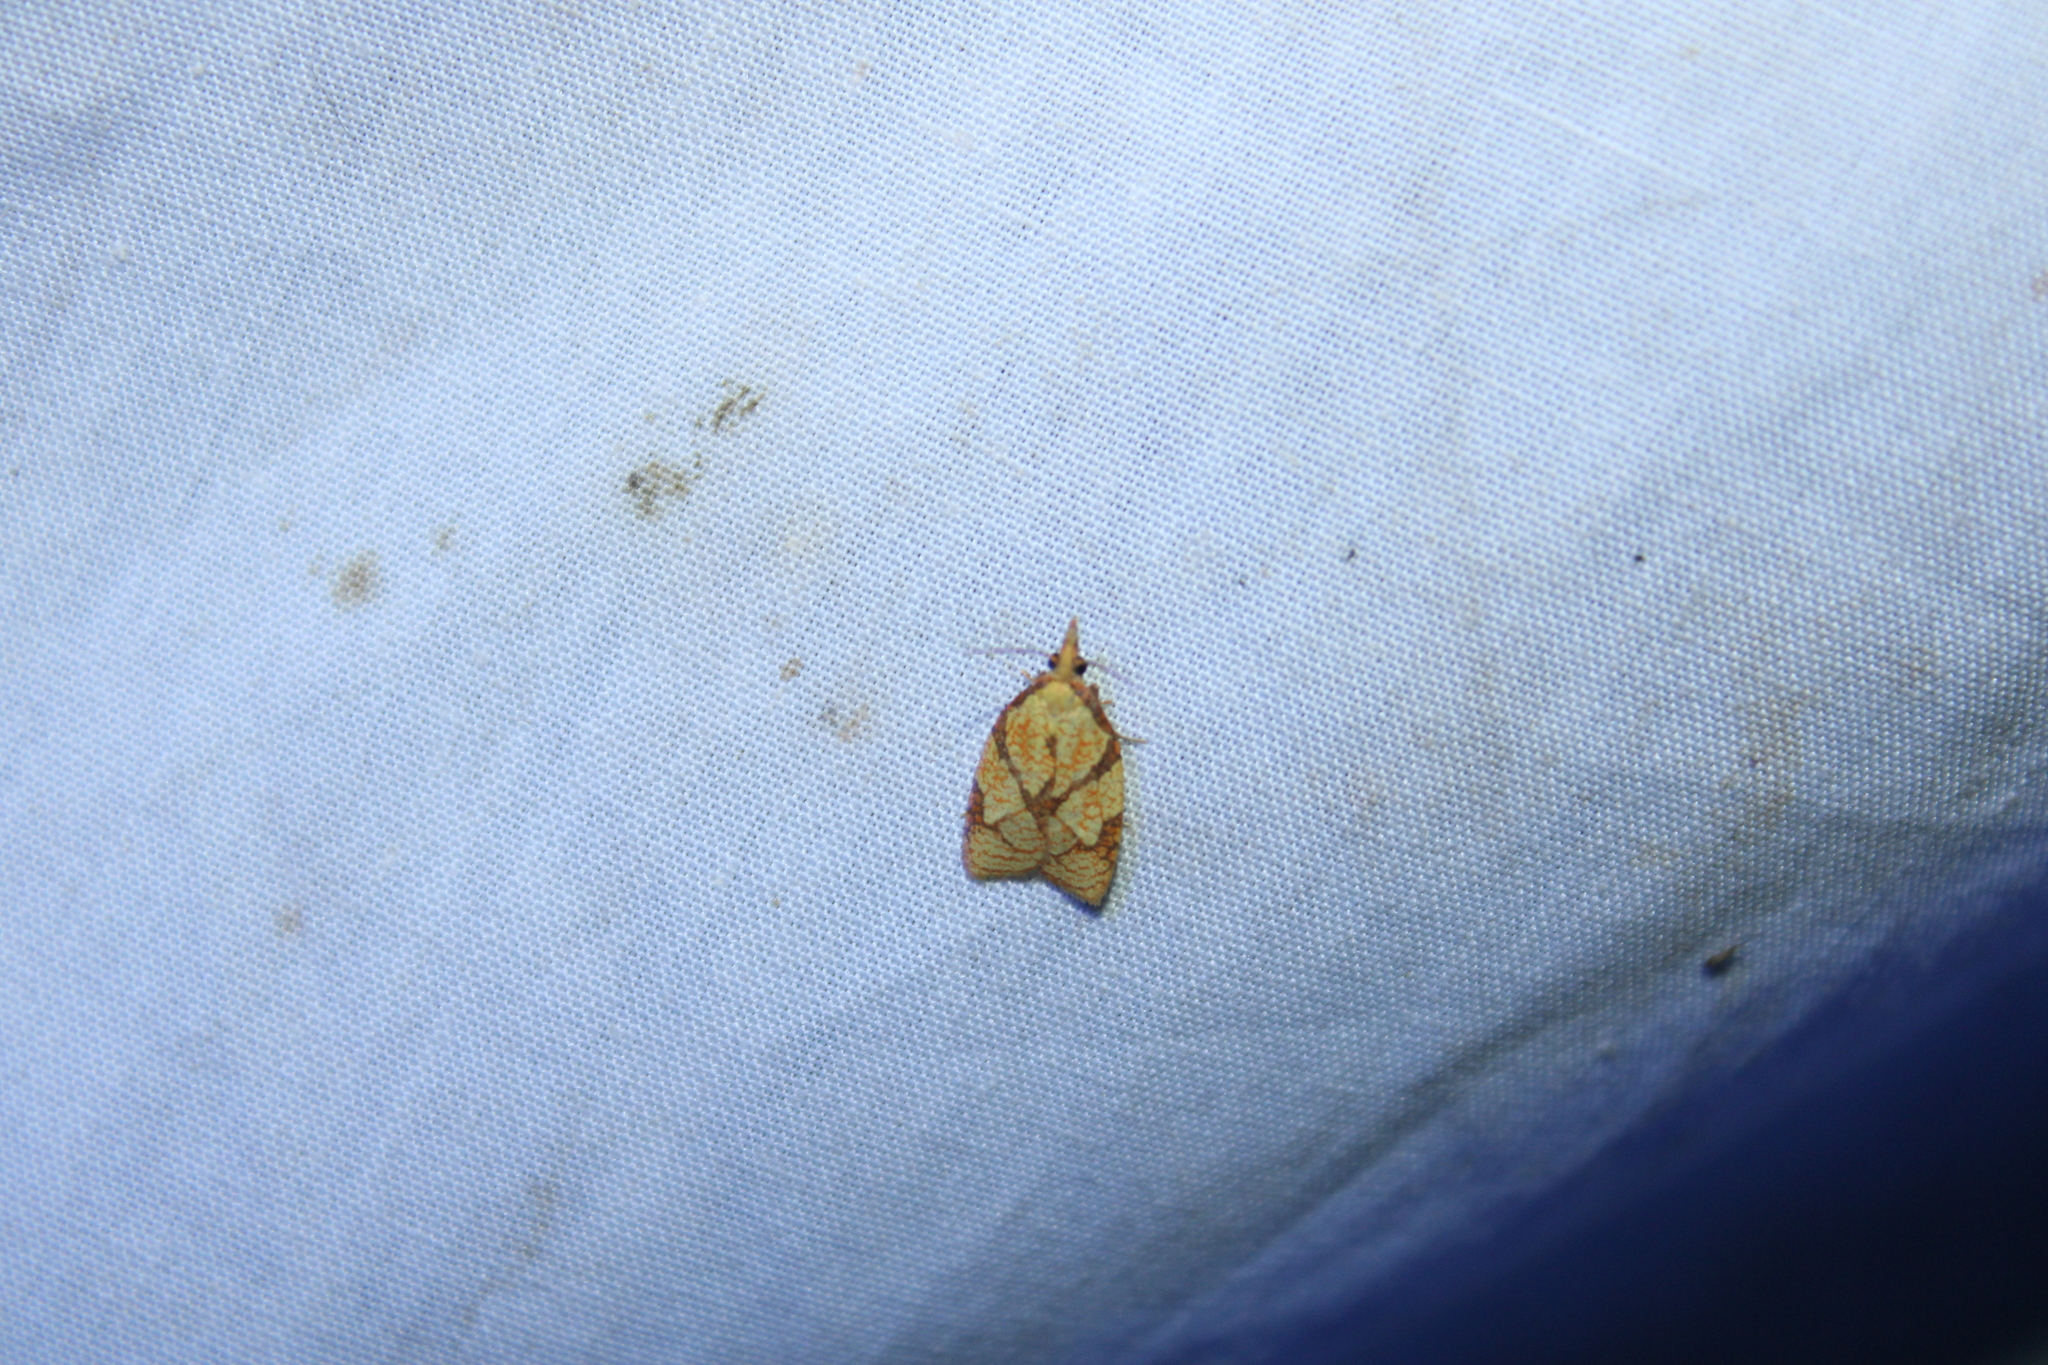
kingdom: Animalia
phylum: Arthropoda
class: Insecta
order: Lepidoptera
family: Tortricidae
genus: Cenopis
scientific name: Cenopis reticulatana
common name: Reticulated fruitworm moth
